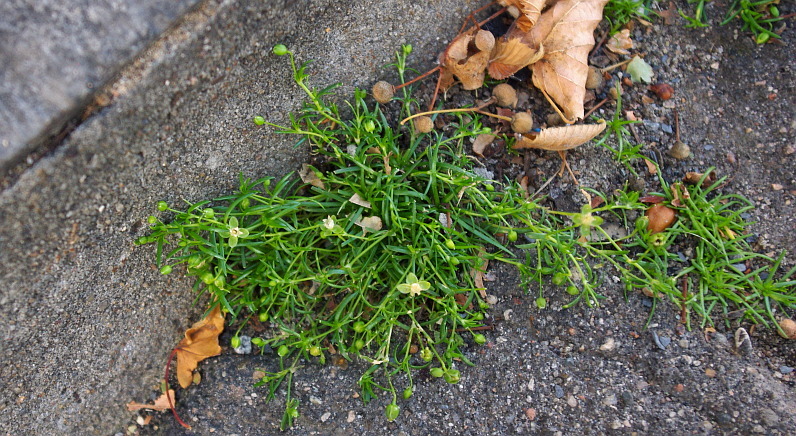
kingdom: Plantae
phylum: Tracheophyta
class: Magnoliopsida
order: Caryophyllales
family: Caryophyllaceae
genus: Sagina
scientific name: Sagina procumbens
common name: Procumbent pearlwort
